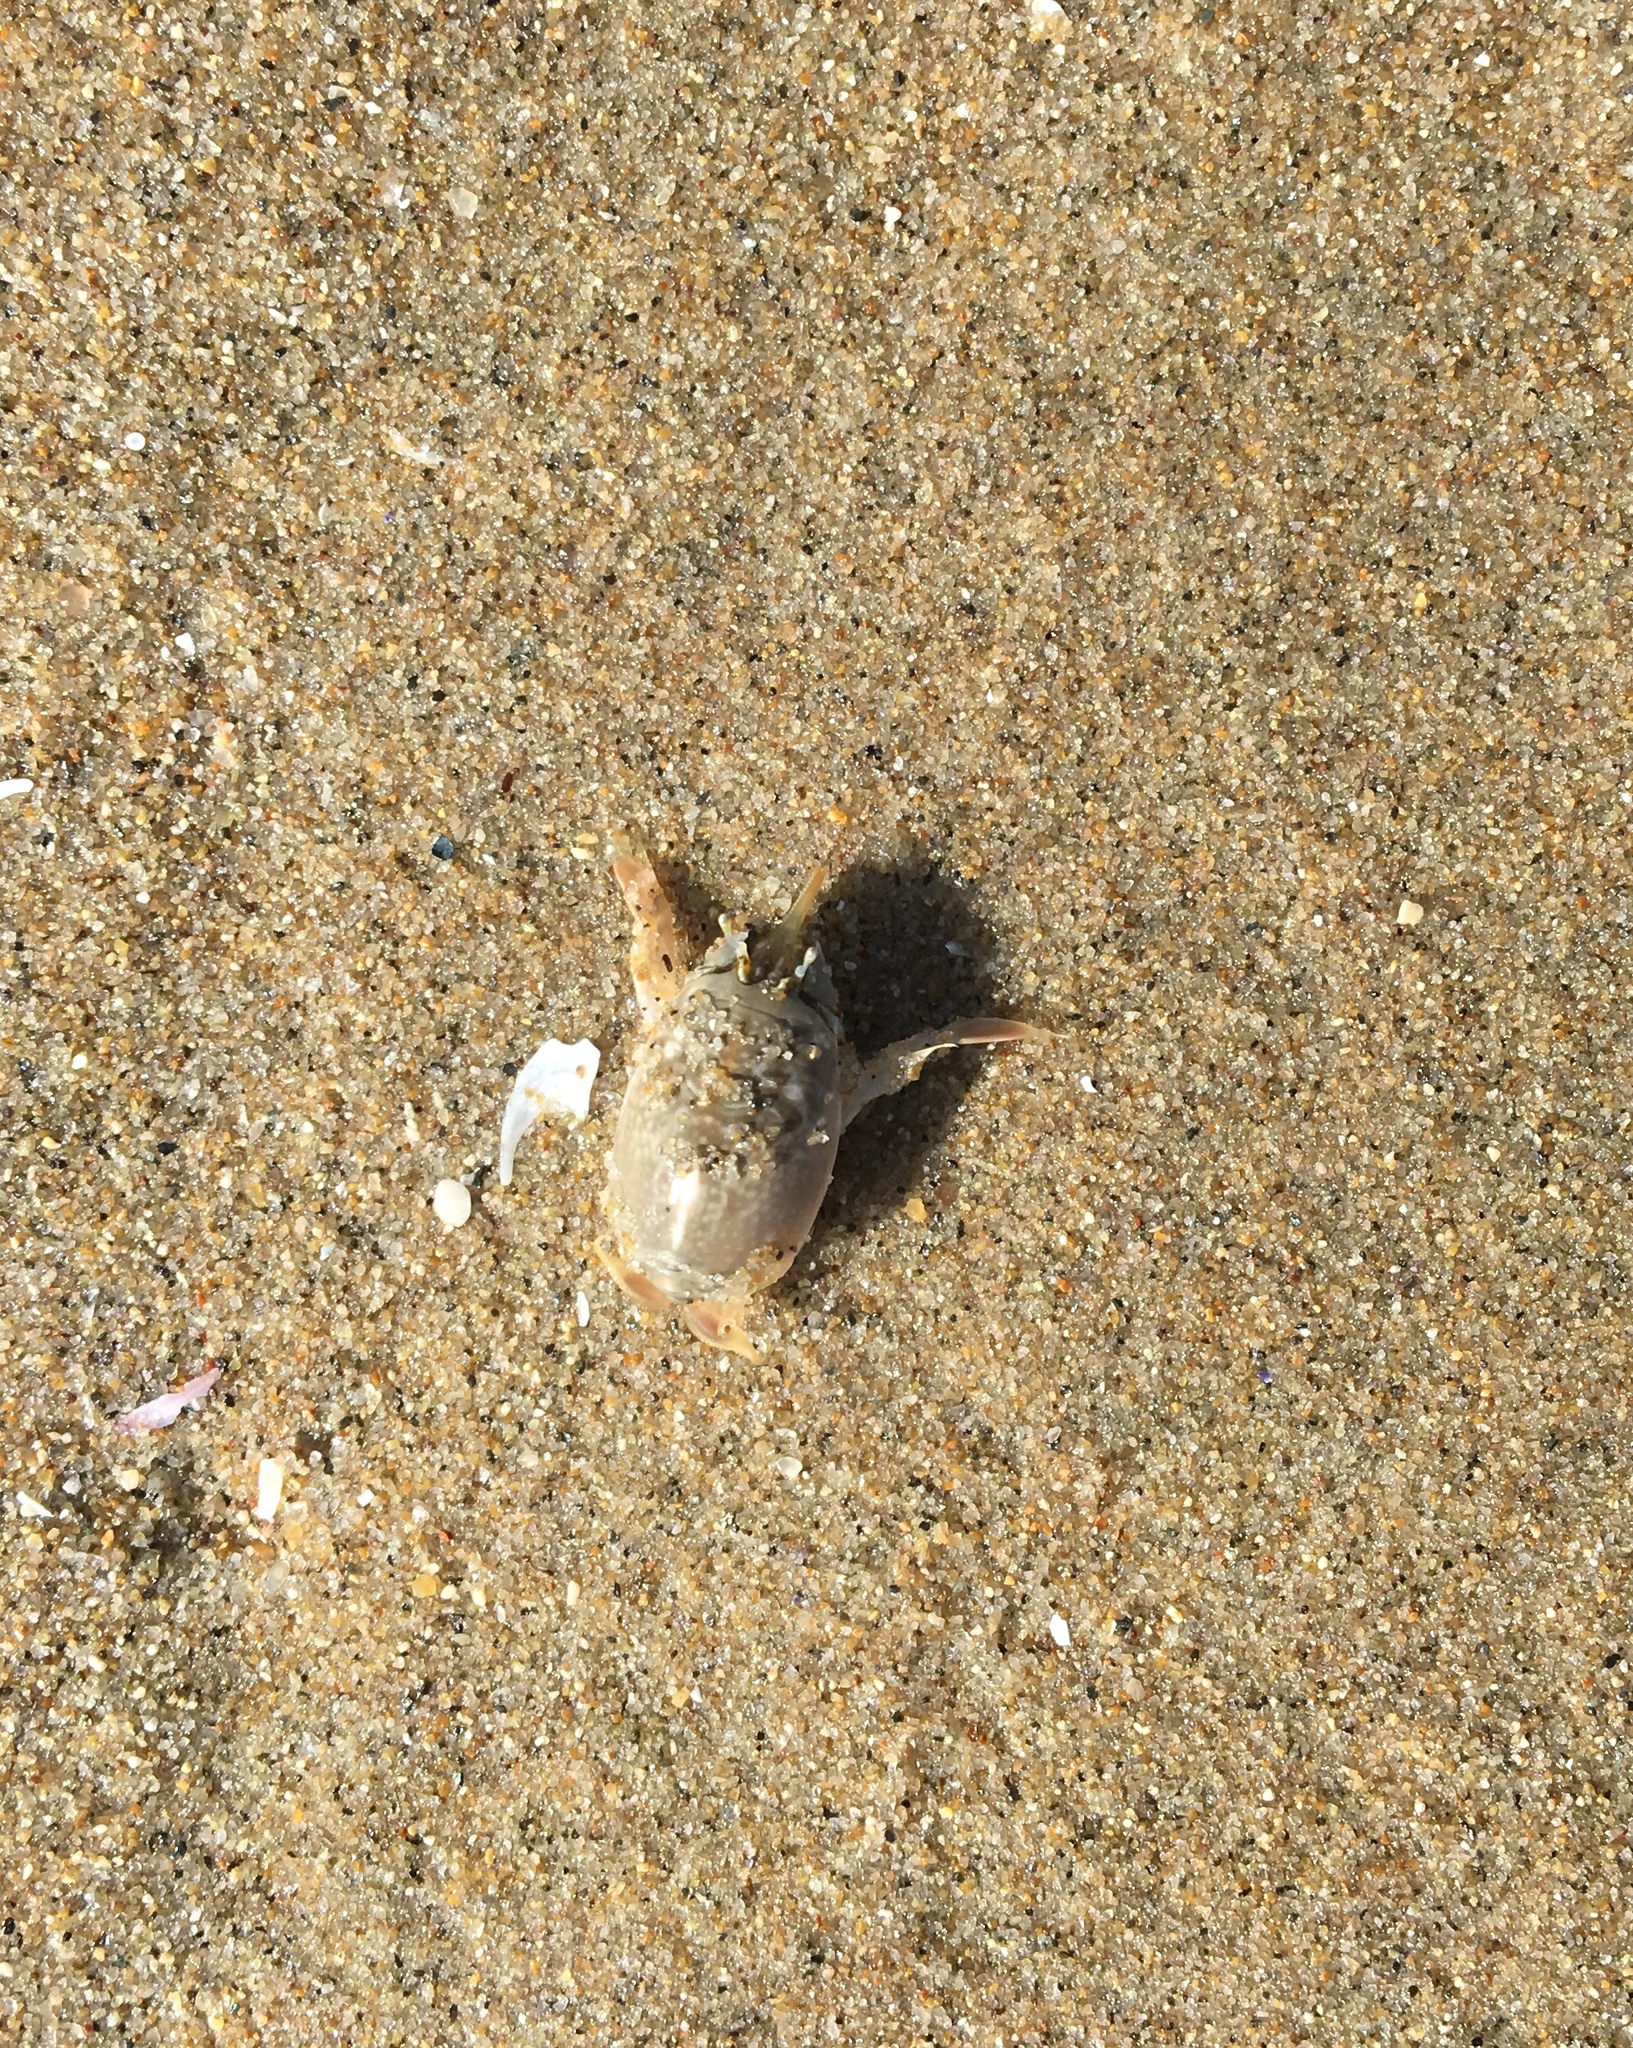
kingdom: Animalia
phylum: Arthropoda
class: Malacostraca
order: Decapoda
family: Hippidae
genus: Emerita
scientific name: Emerita analoga
